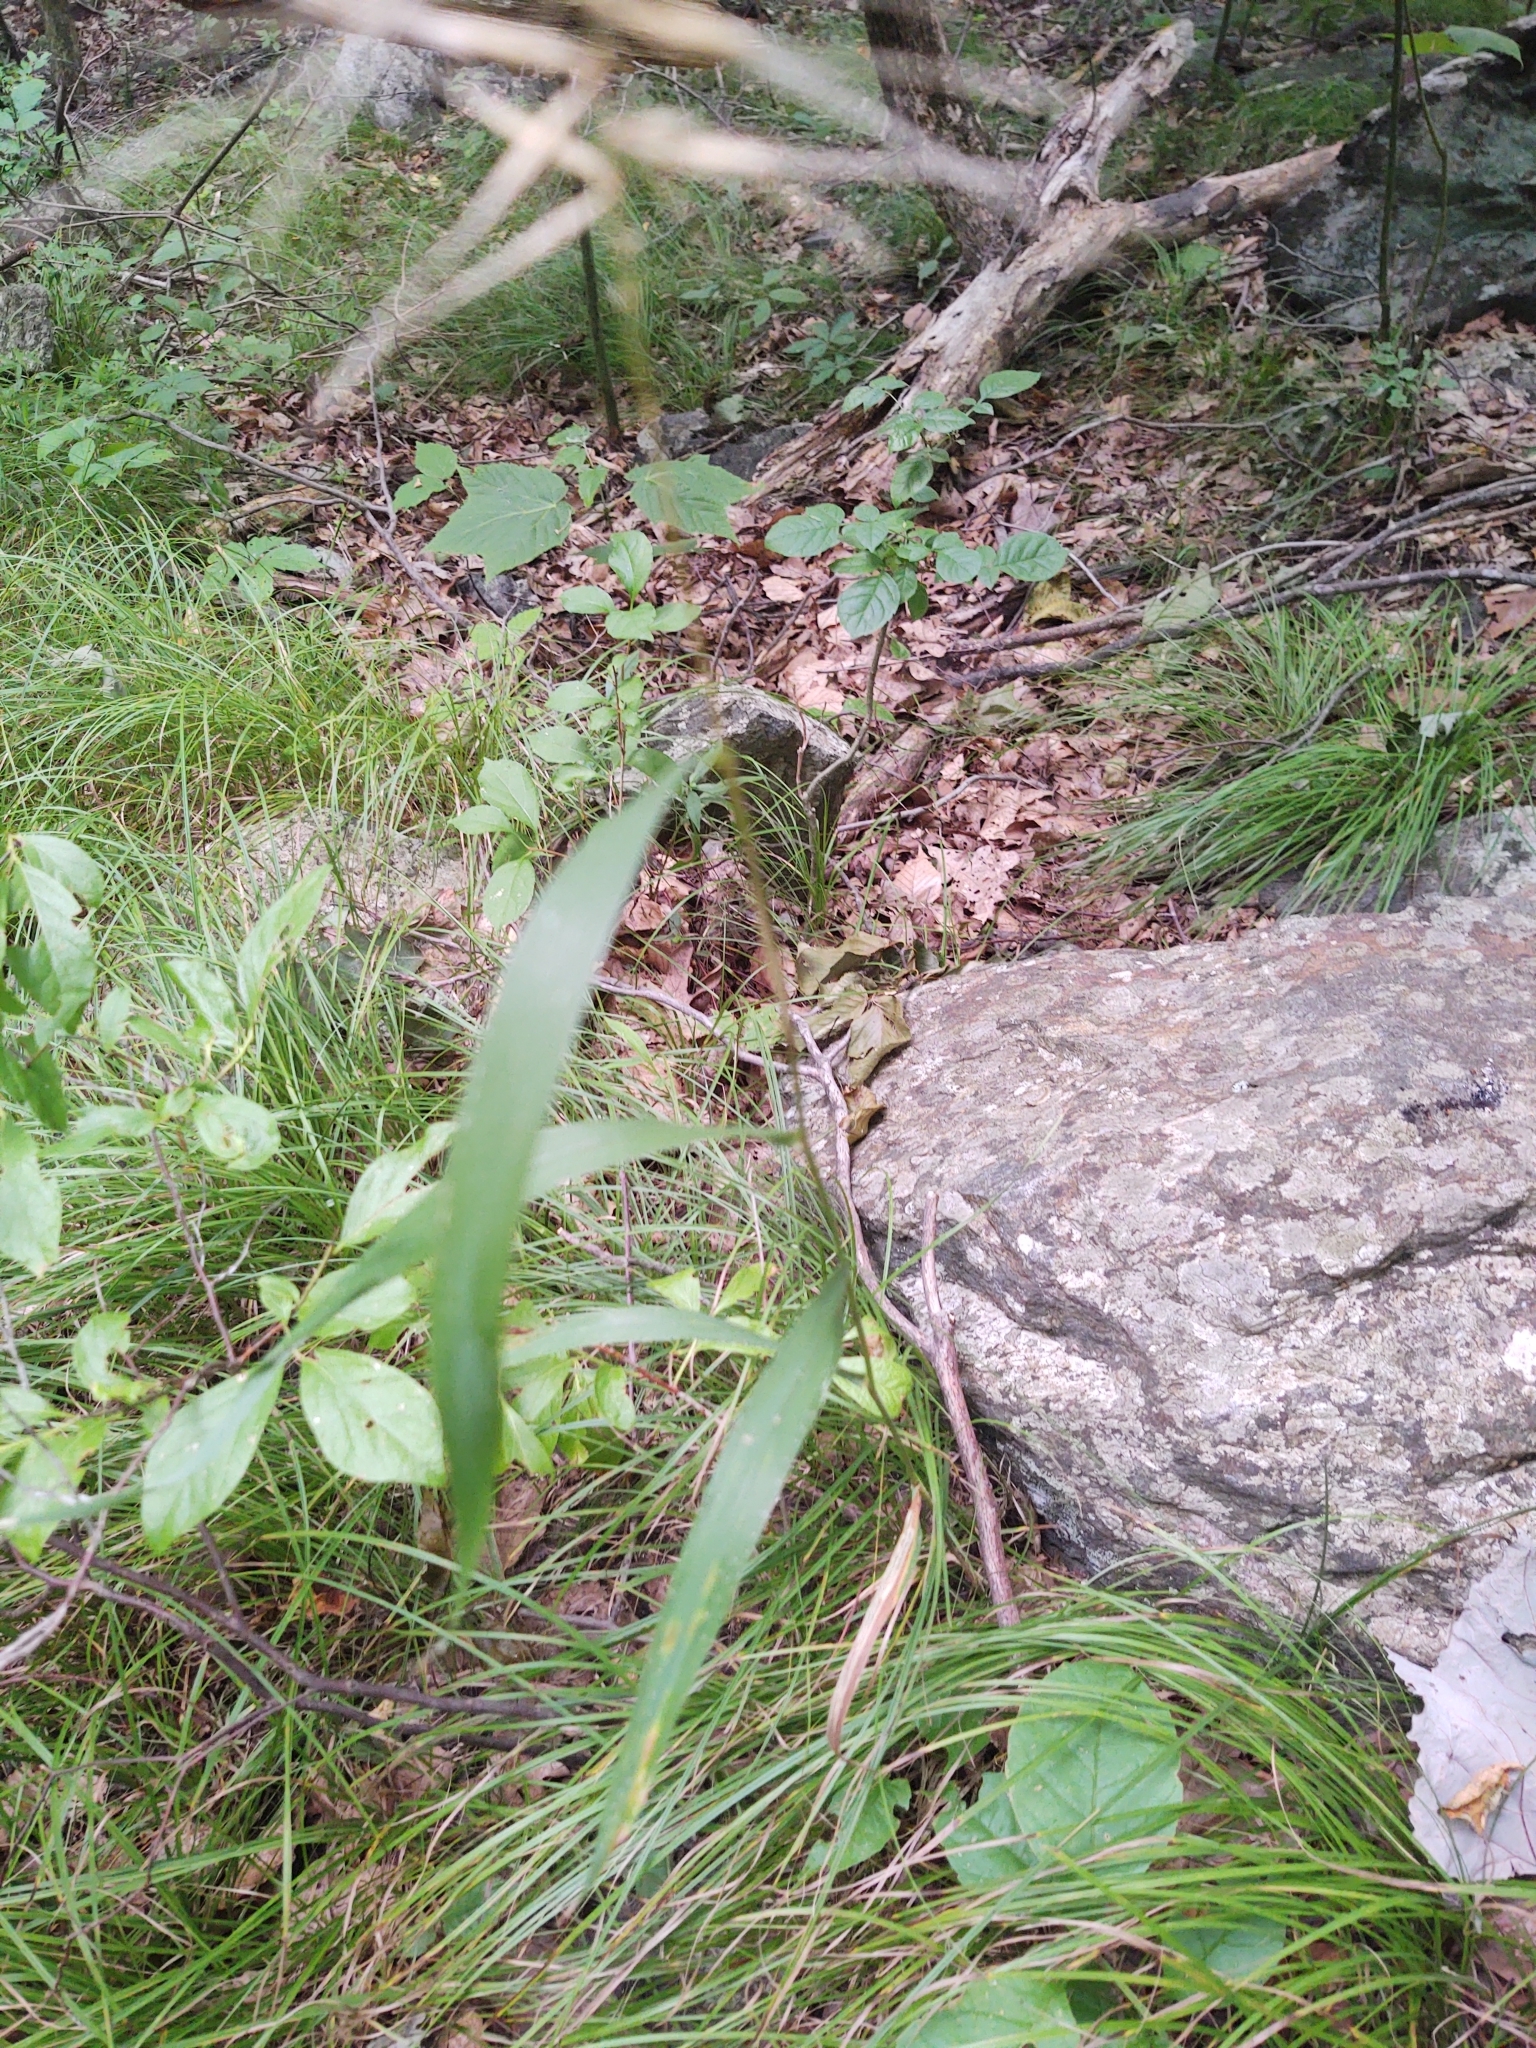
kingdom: Plantae
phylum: Tracheophyta
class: Liliopsida
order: Poales
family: Poaceae
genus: Elymus
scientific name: Elymus hystrix
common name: Bottlebrush grass
